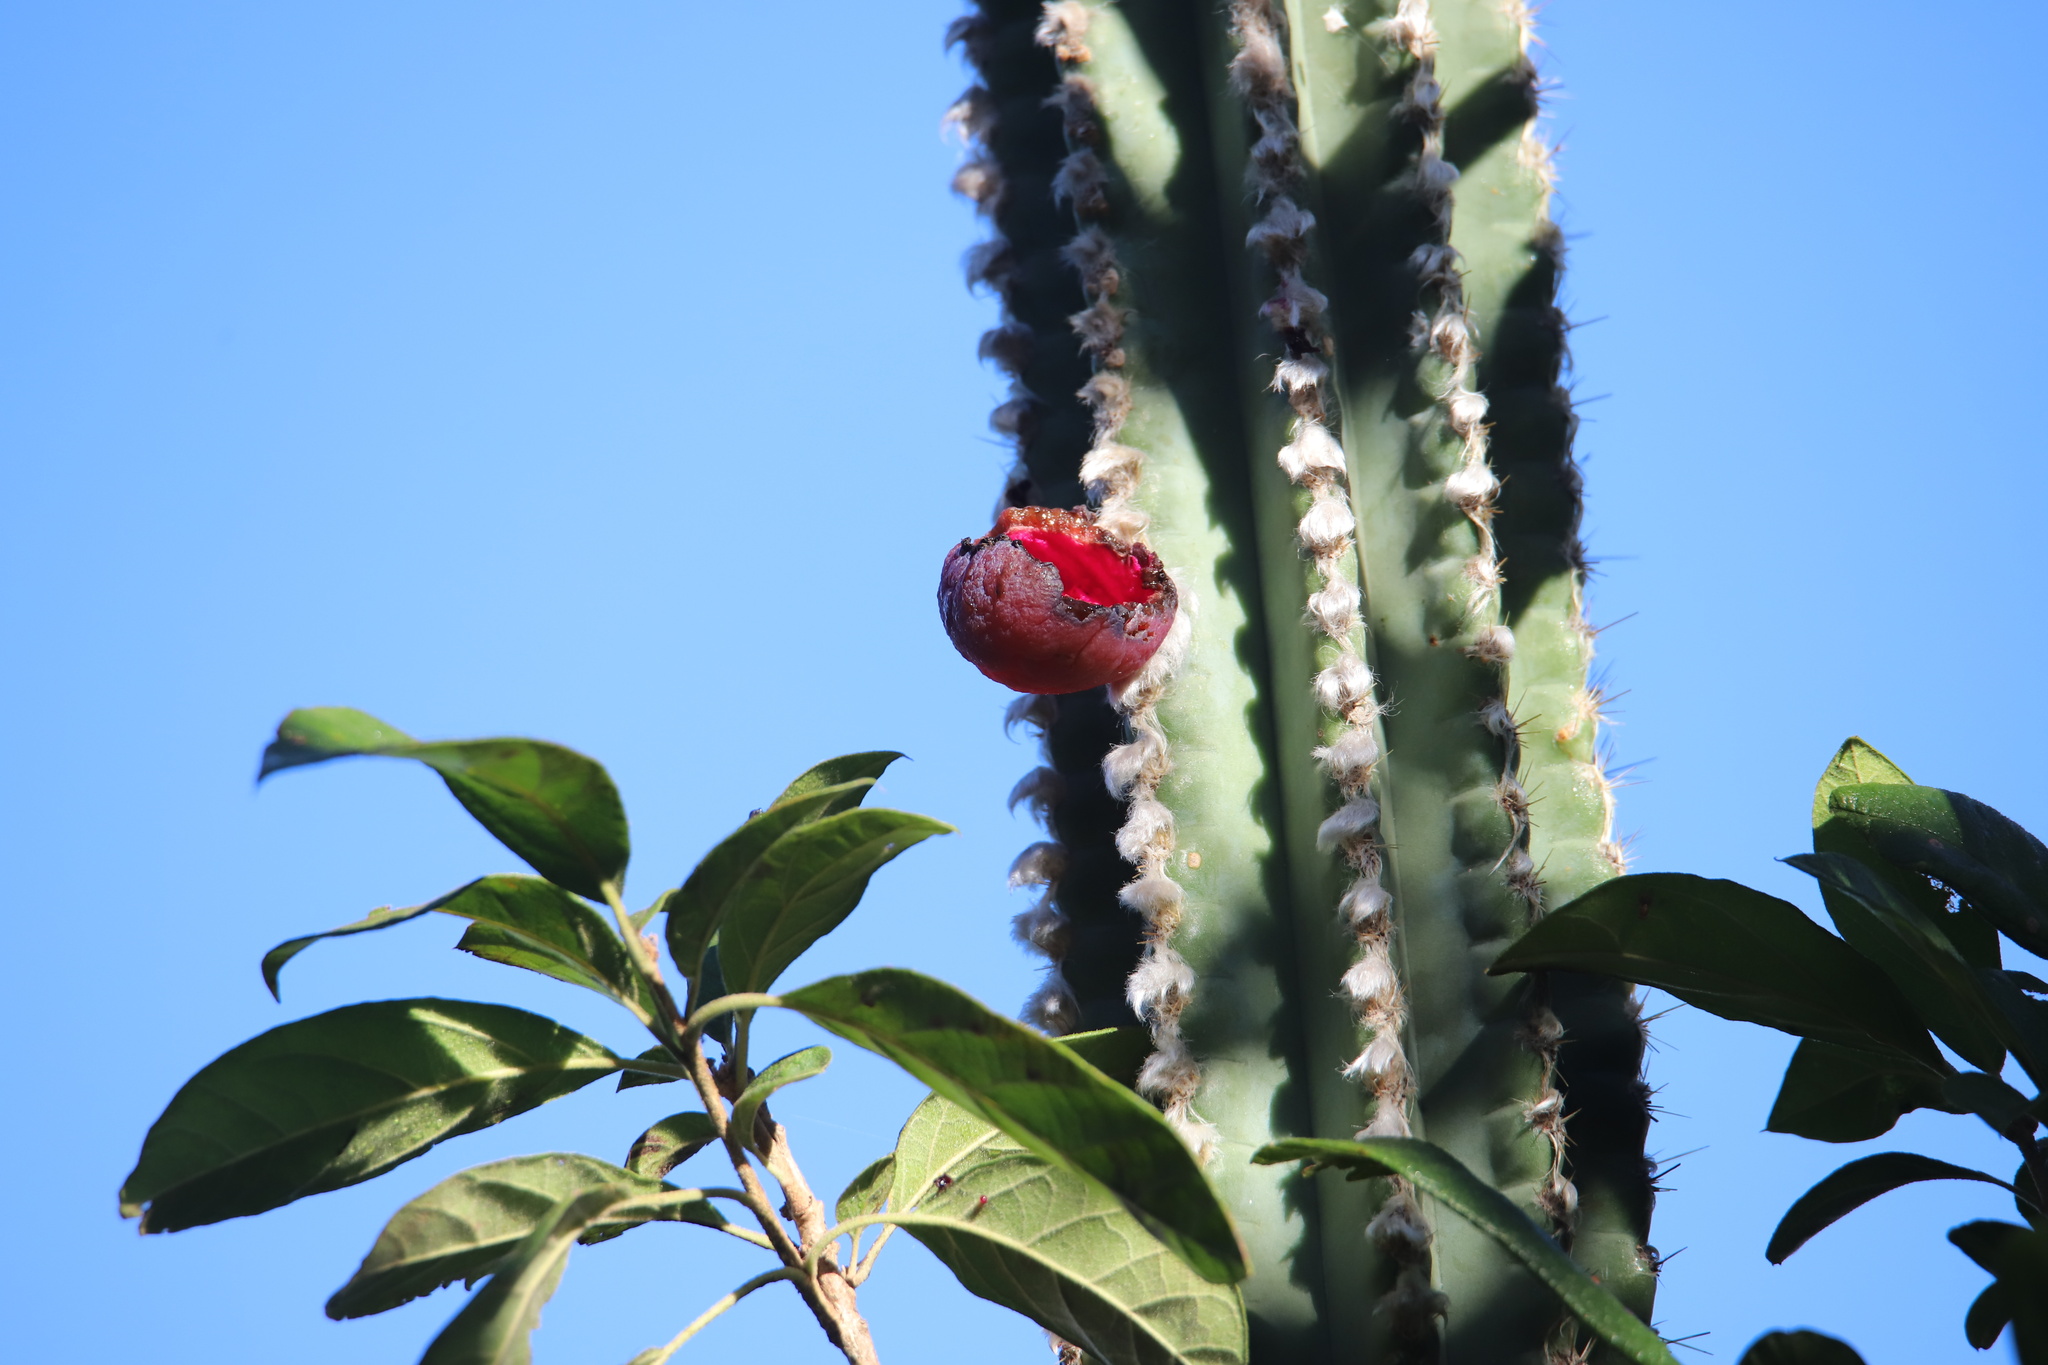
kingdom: Plantae
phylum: Tracheophyta
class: Magnoliopsida
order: Caryophyllales
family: Cactaceae
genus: Pilosocereus
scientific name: Pilosocereus polygonus
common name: Key tree cactus
